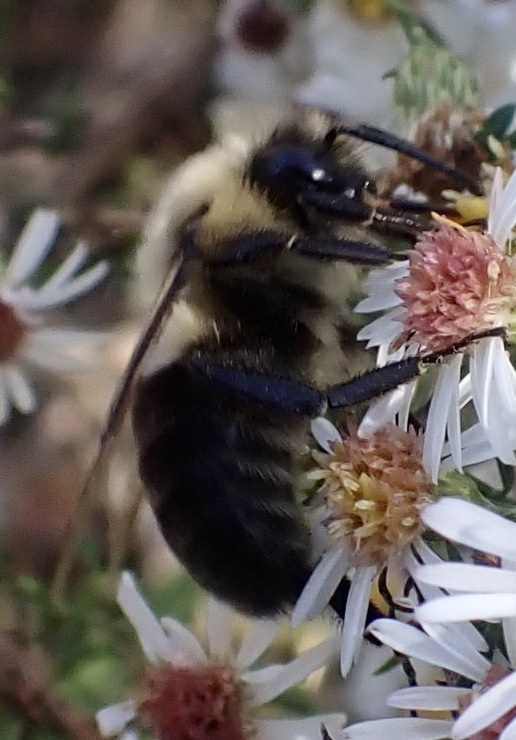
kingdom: Animalia
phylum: Arthropoda
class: Insecta
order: Hymenoptera
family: Apidae
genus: Bombus
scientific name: Bombus impatiens
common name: Common eastern bumble bee
